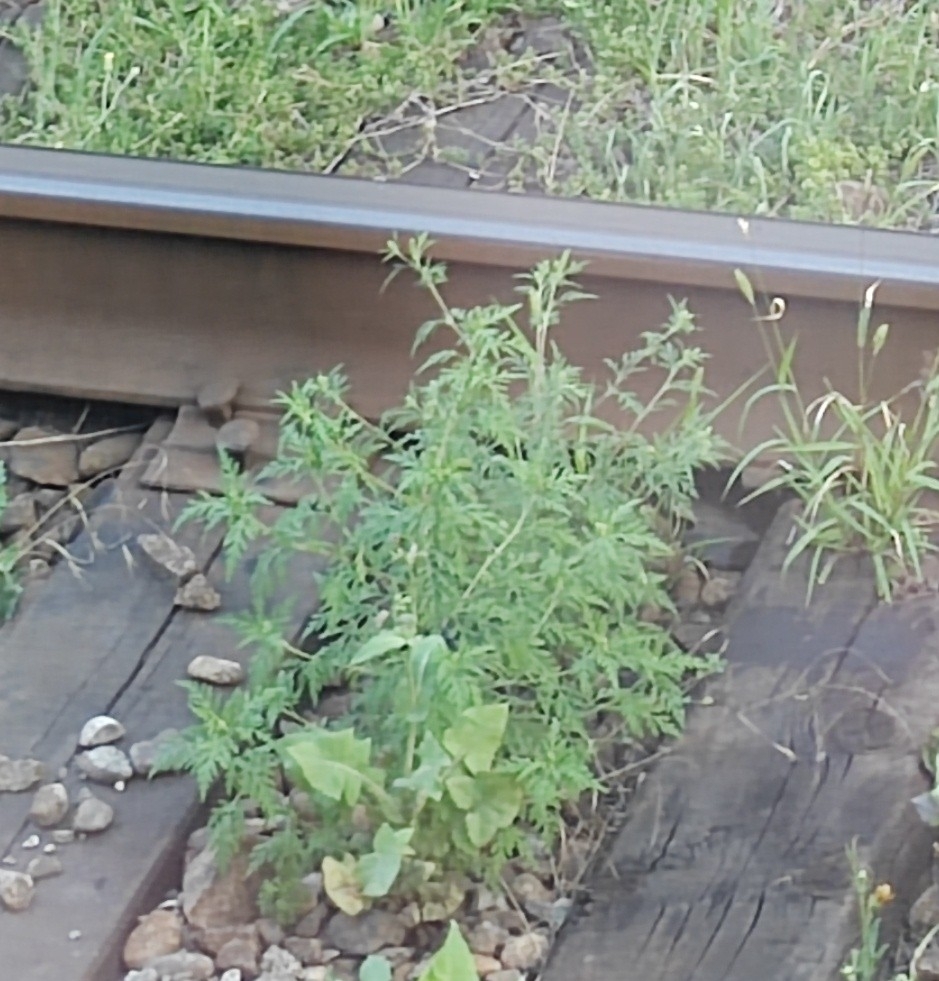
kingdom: Plantae
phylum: Tracheophyta
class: Magnoliopsida
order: Asterales
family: Asteraceae
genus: Ambrosia
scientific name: Ambrosia artemisiifolia
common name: Annual ragweed
